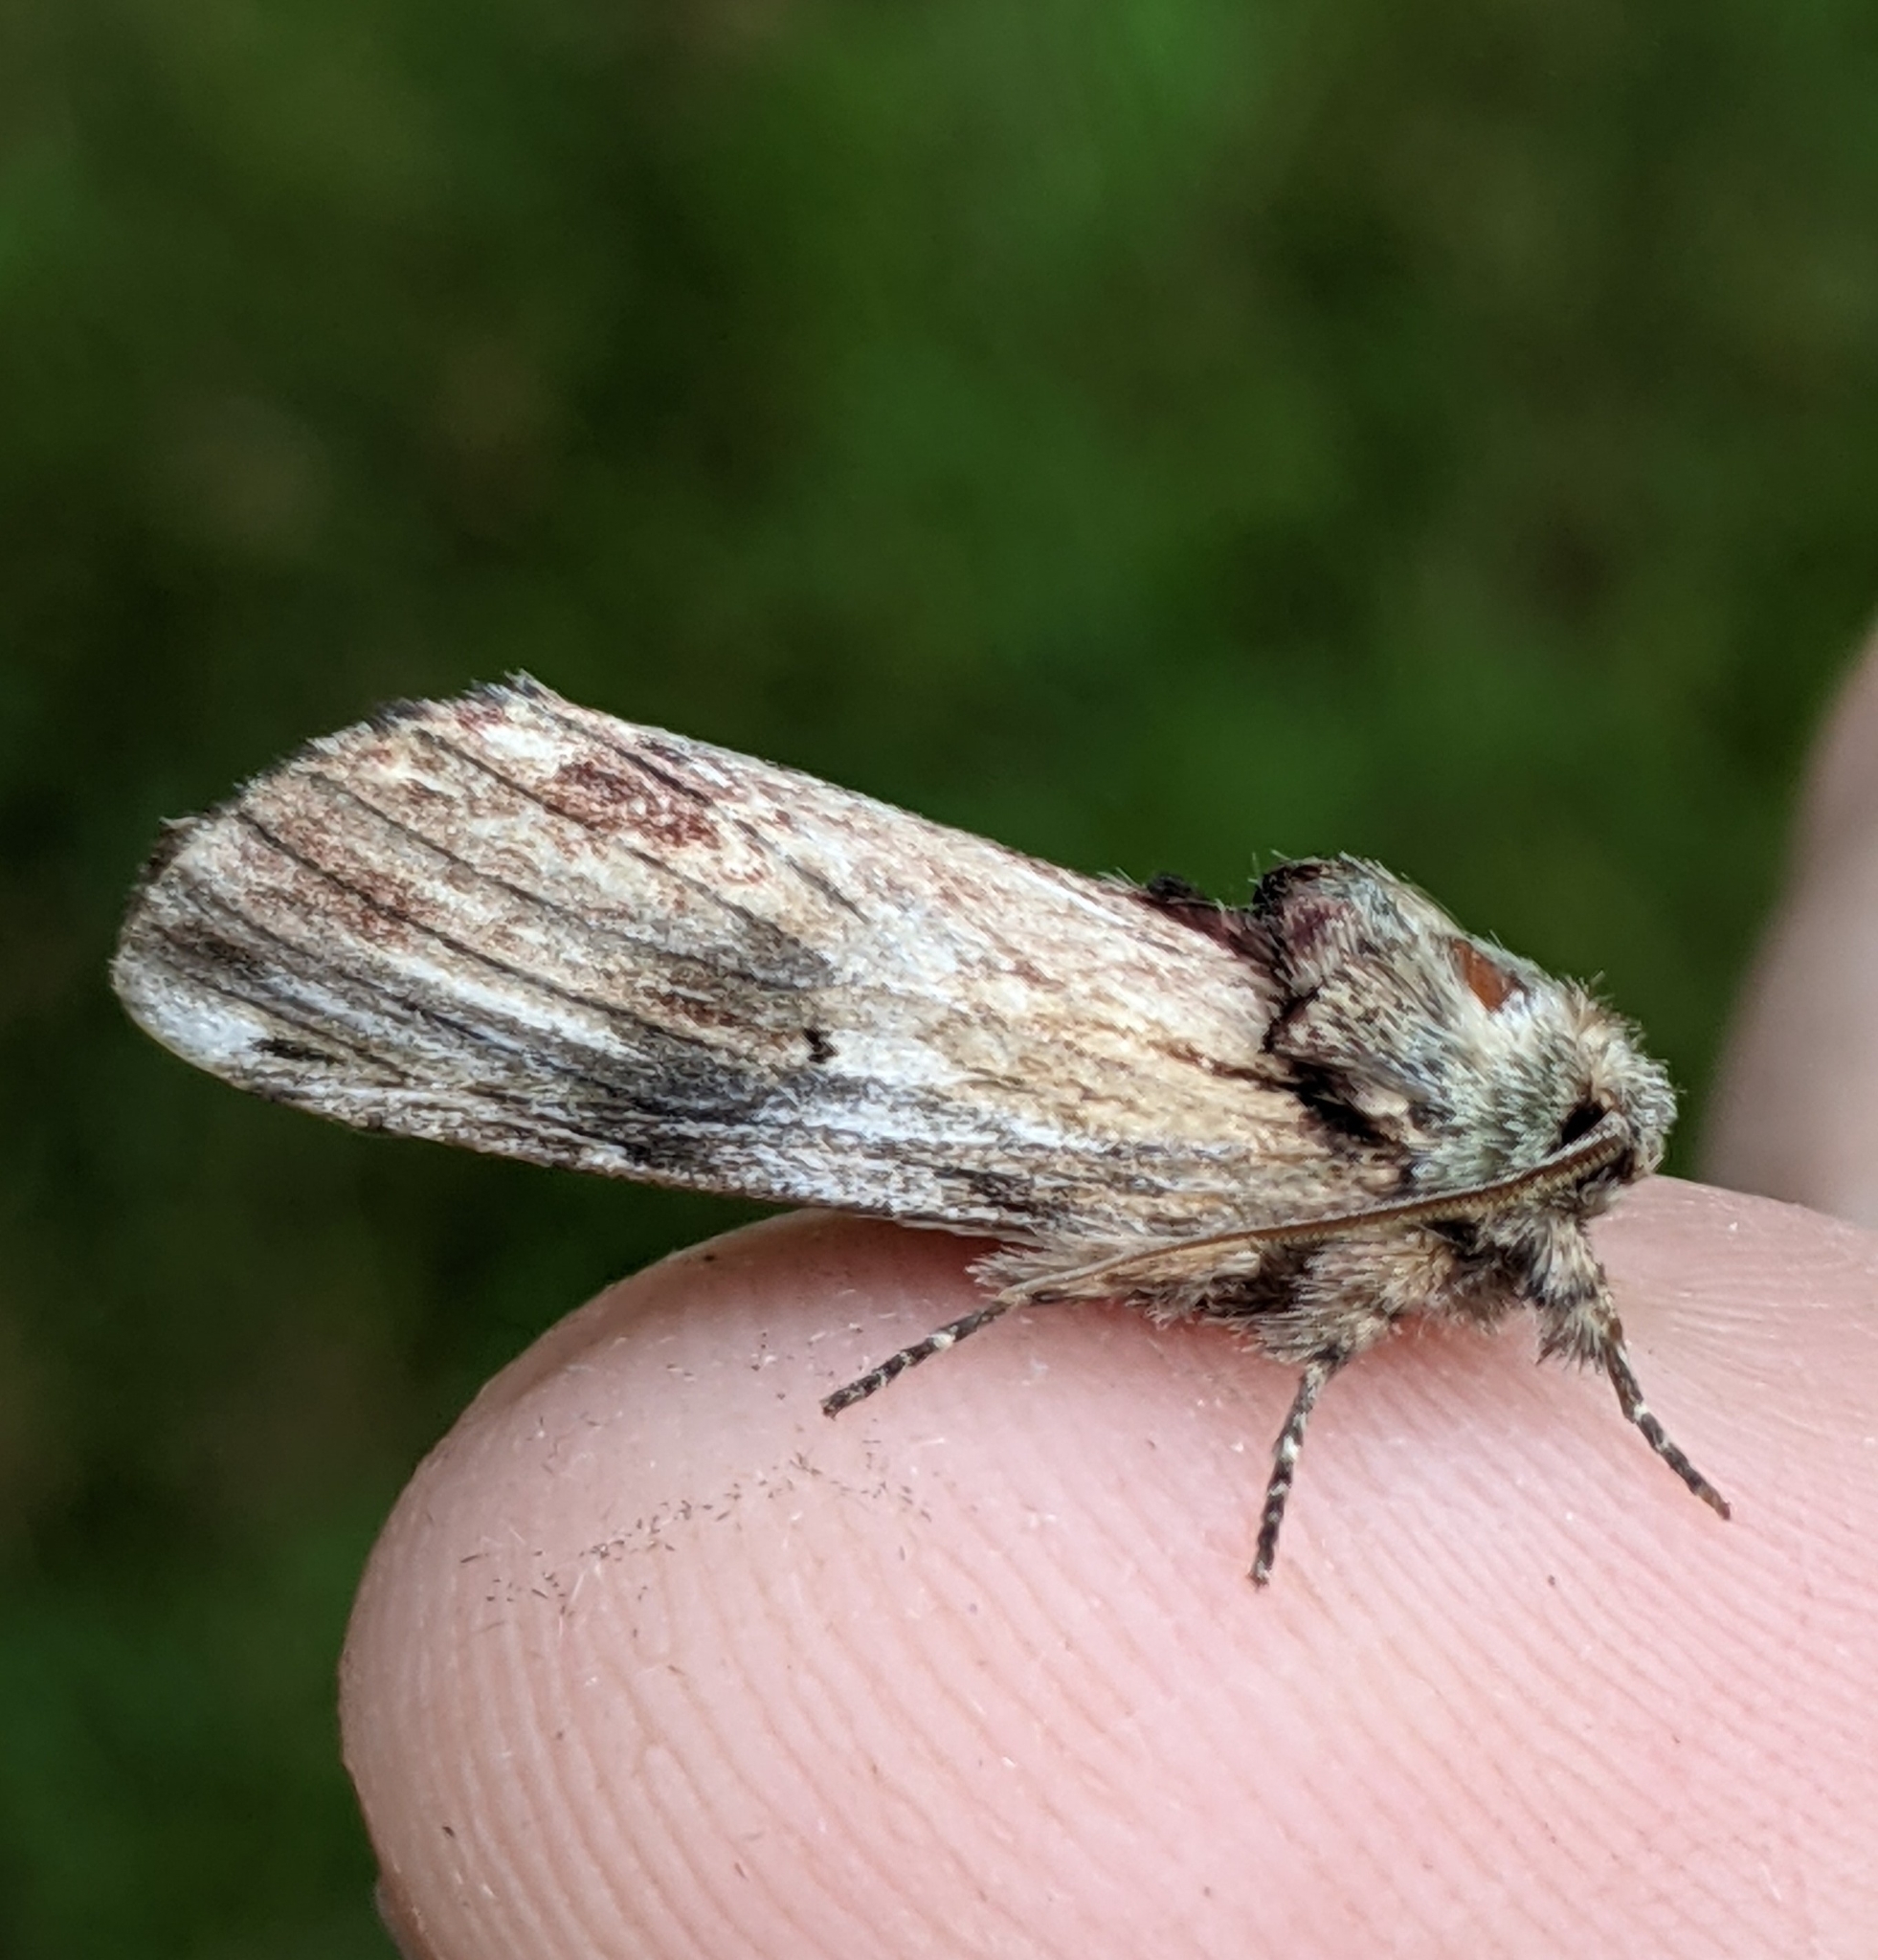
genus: Ianassa
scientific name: Ianassa
